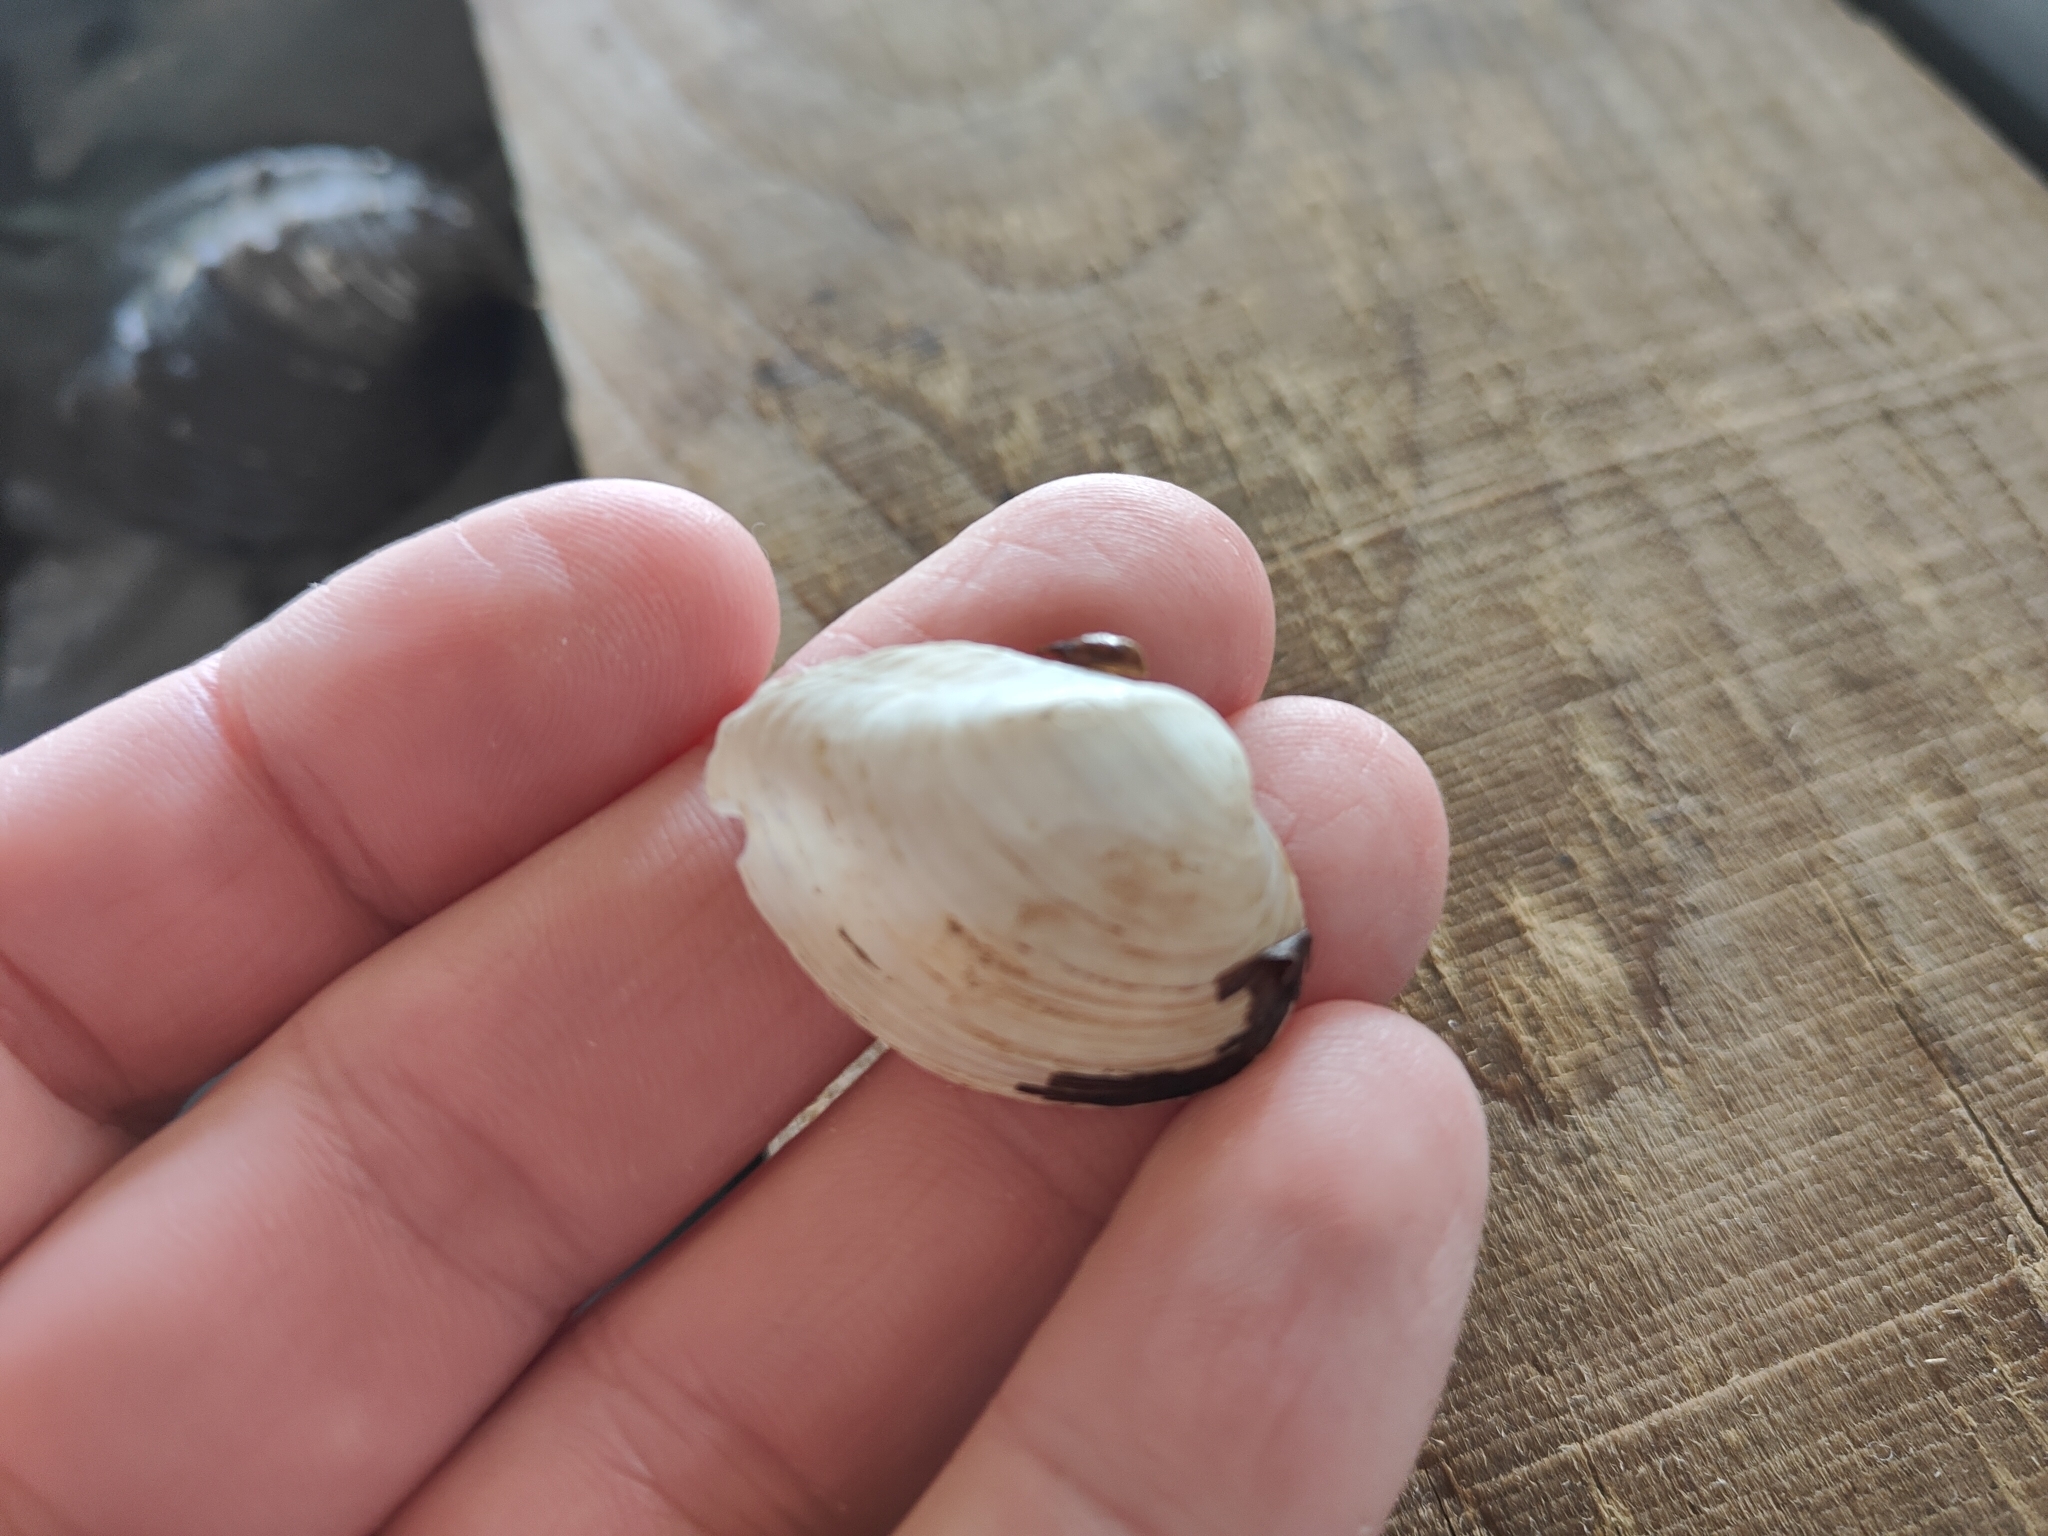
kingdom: Animalia
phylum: Mollusca
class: Bivalvia
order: Unionida
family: Unionidae
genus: Truncilla
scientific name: Truncilla truncata
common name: Deertoe
